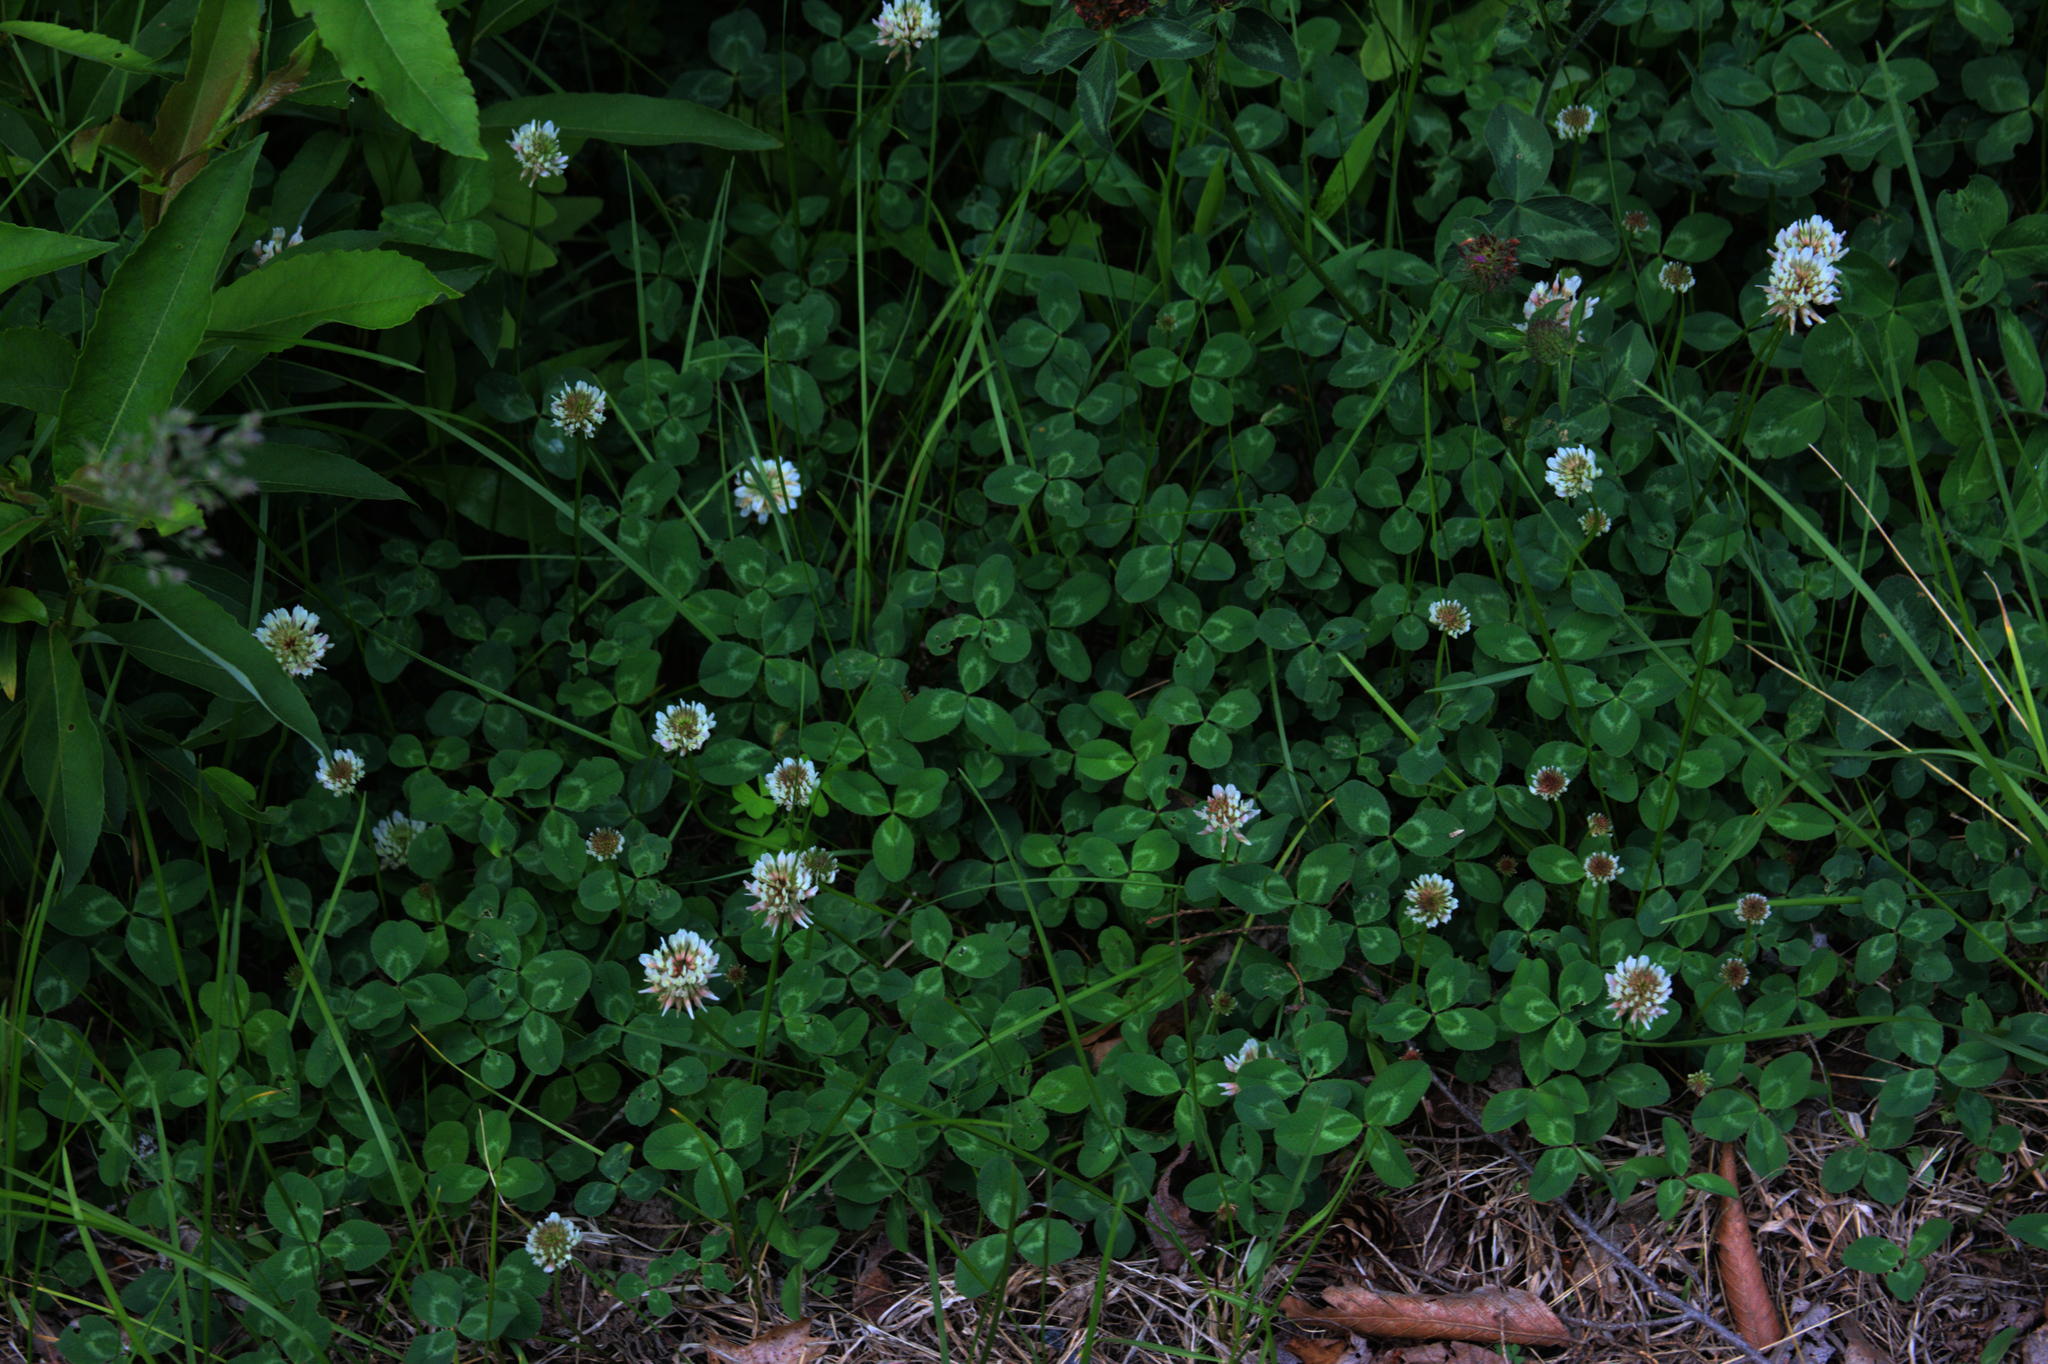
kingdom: Plantae
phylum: Tracheophyta
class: Magnoliopsida
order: Fabales
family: Fabaceae
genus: Trifolium
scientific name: Trifolium repens
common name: White clover
